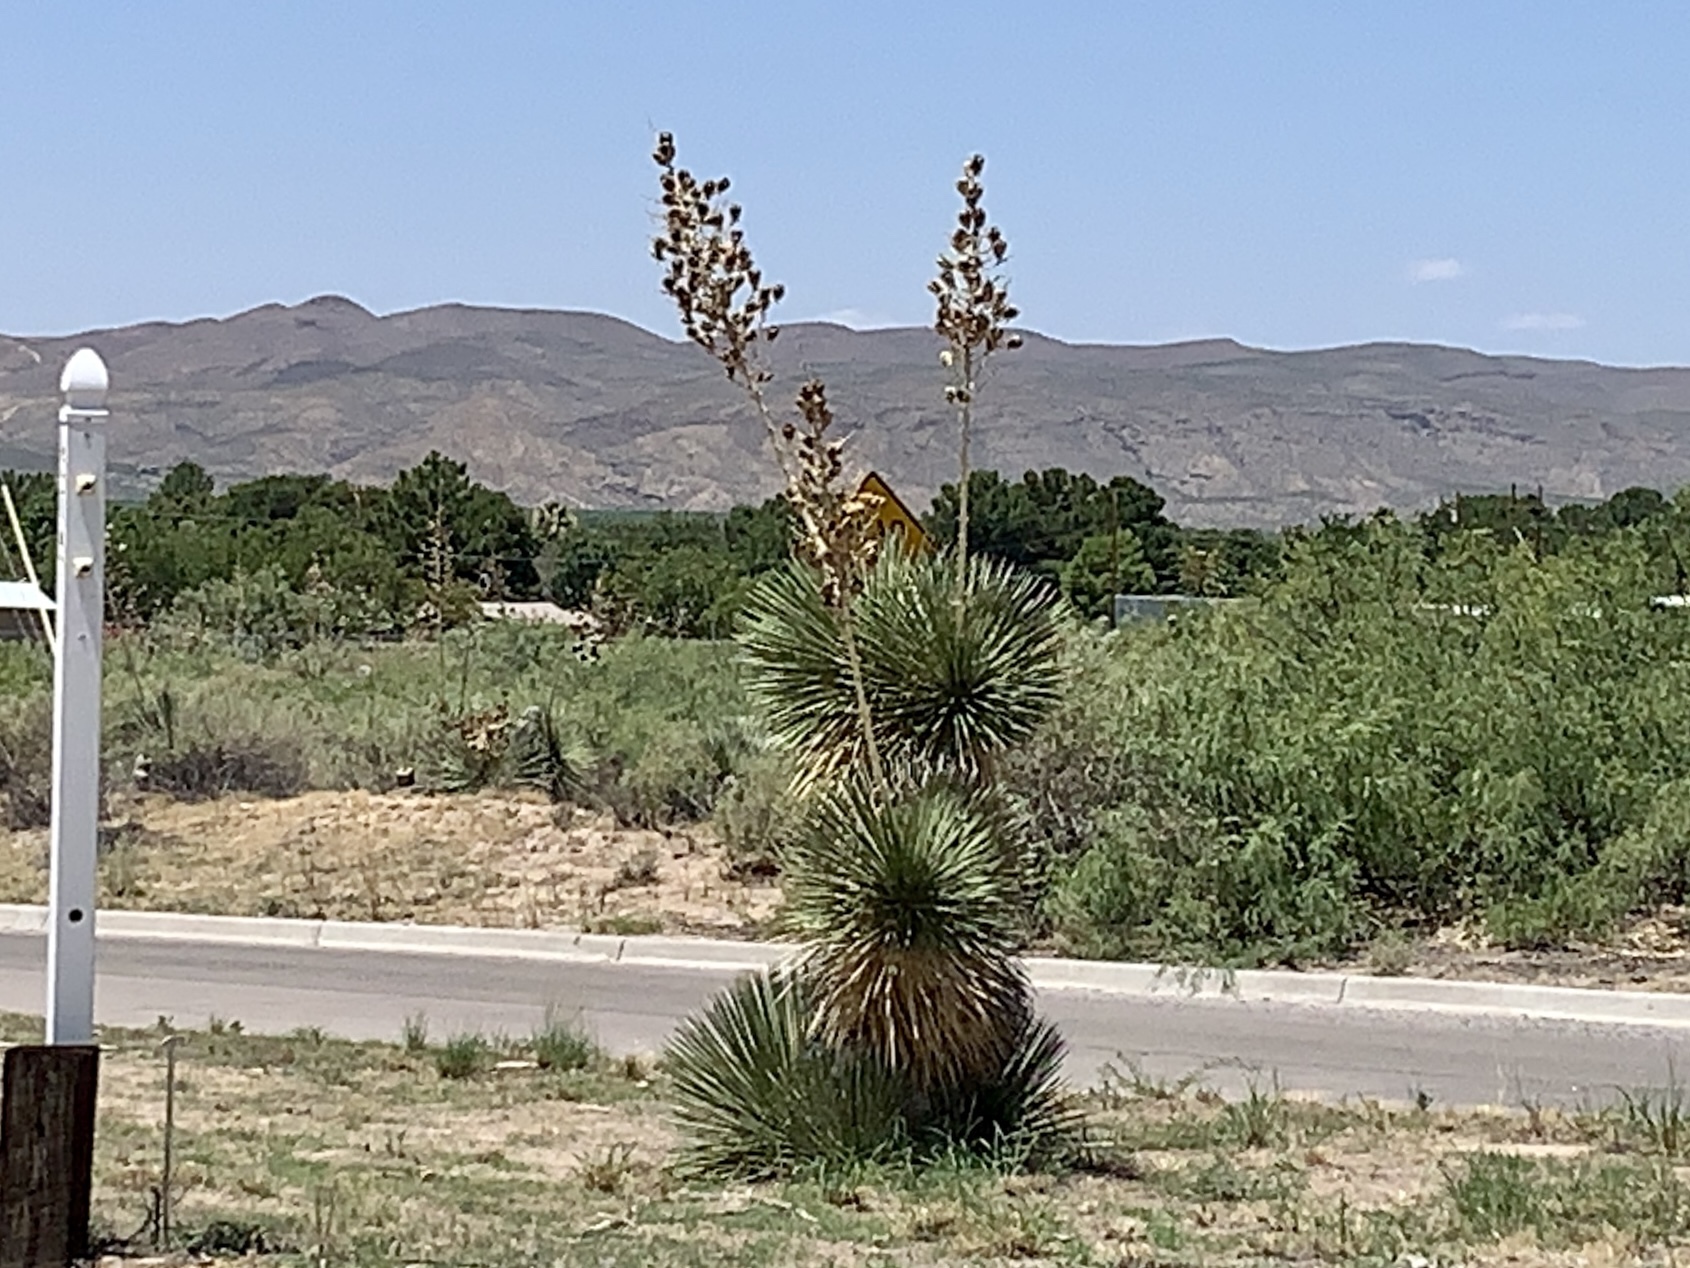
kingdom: Plantae
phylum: Tracheophyta
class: Liliopsida
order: Asparagales
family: Asparagaceae
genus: Yucca
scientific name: Yucca elata
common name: Palmella
